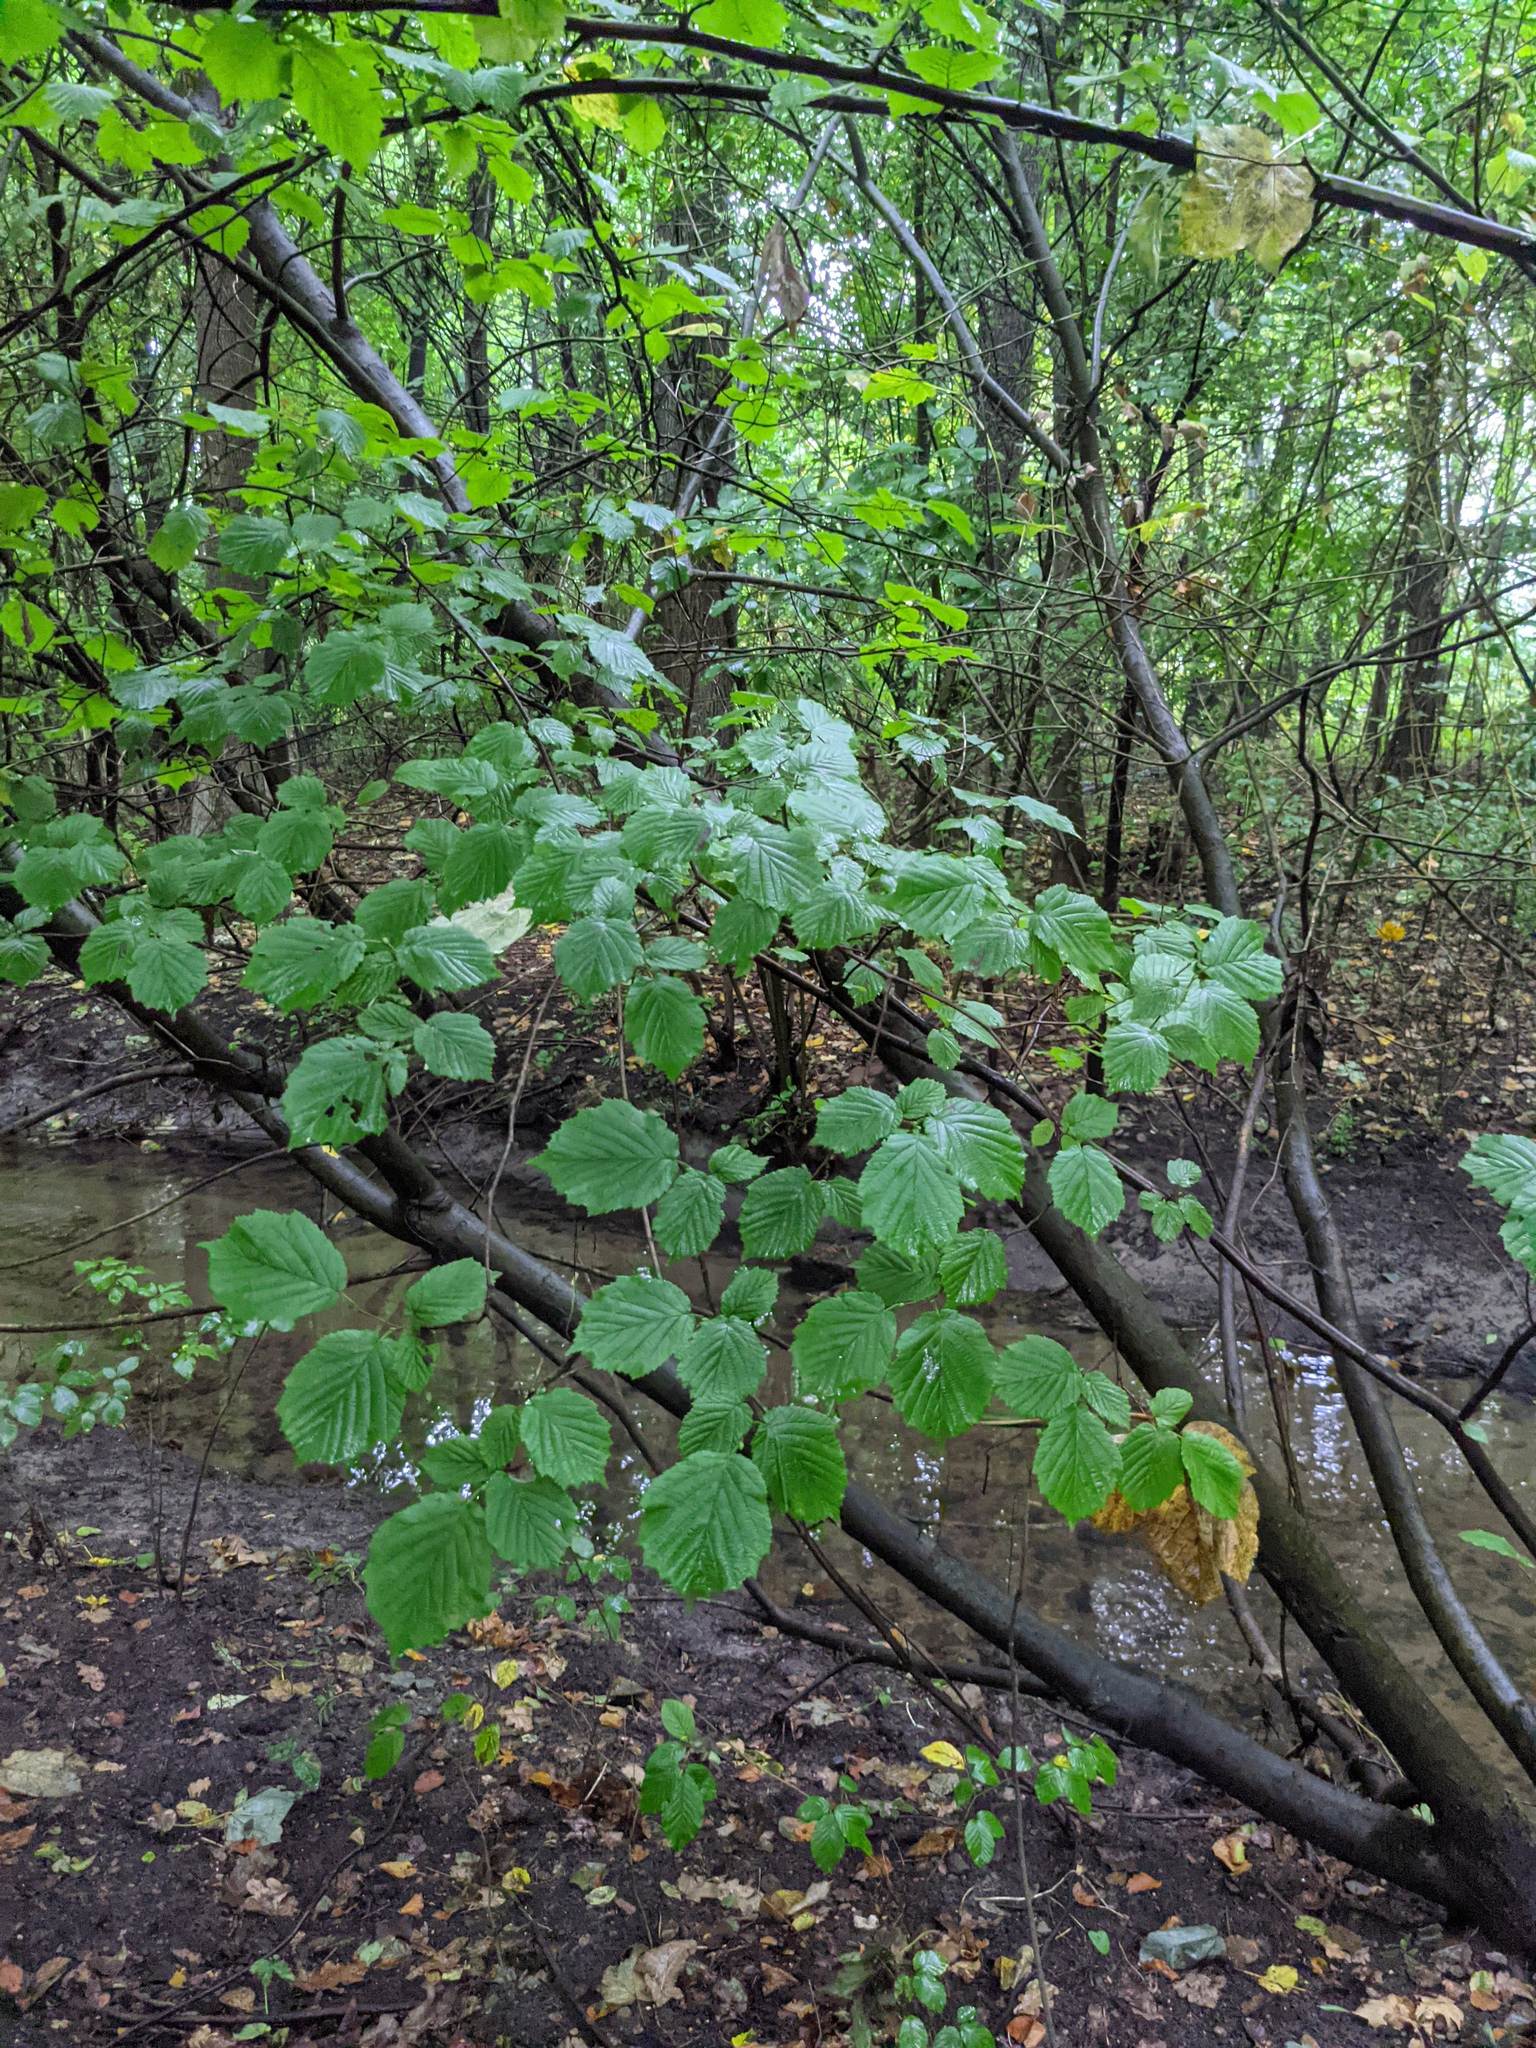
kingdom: Plantae
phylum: Tracheophyta
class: Magnoliopsida
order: Fagales
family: Betulaceae
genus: Corylus
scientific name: Corylus avellana
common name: European hazel
